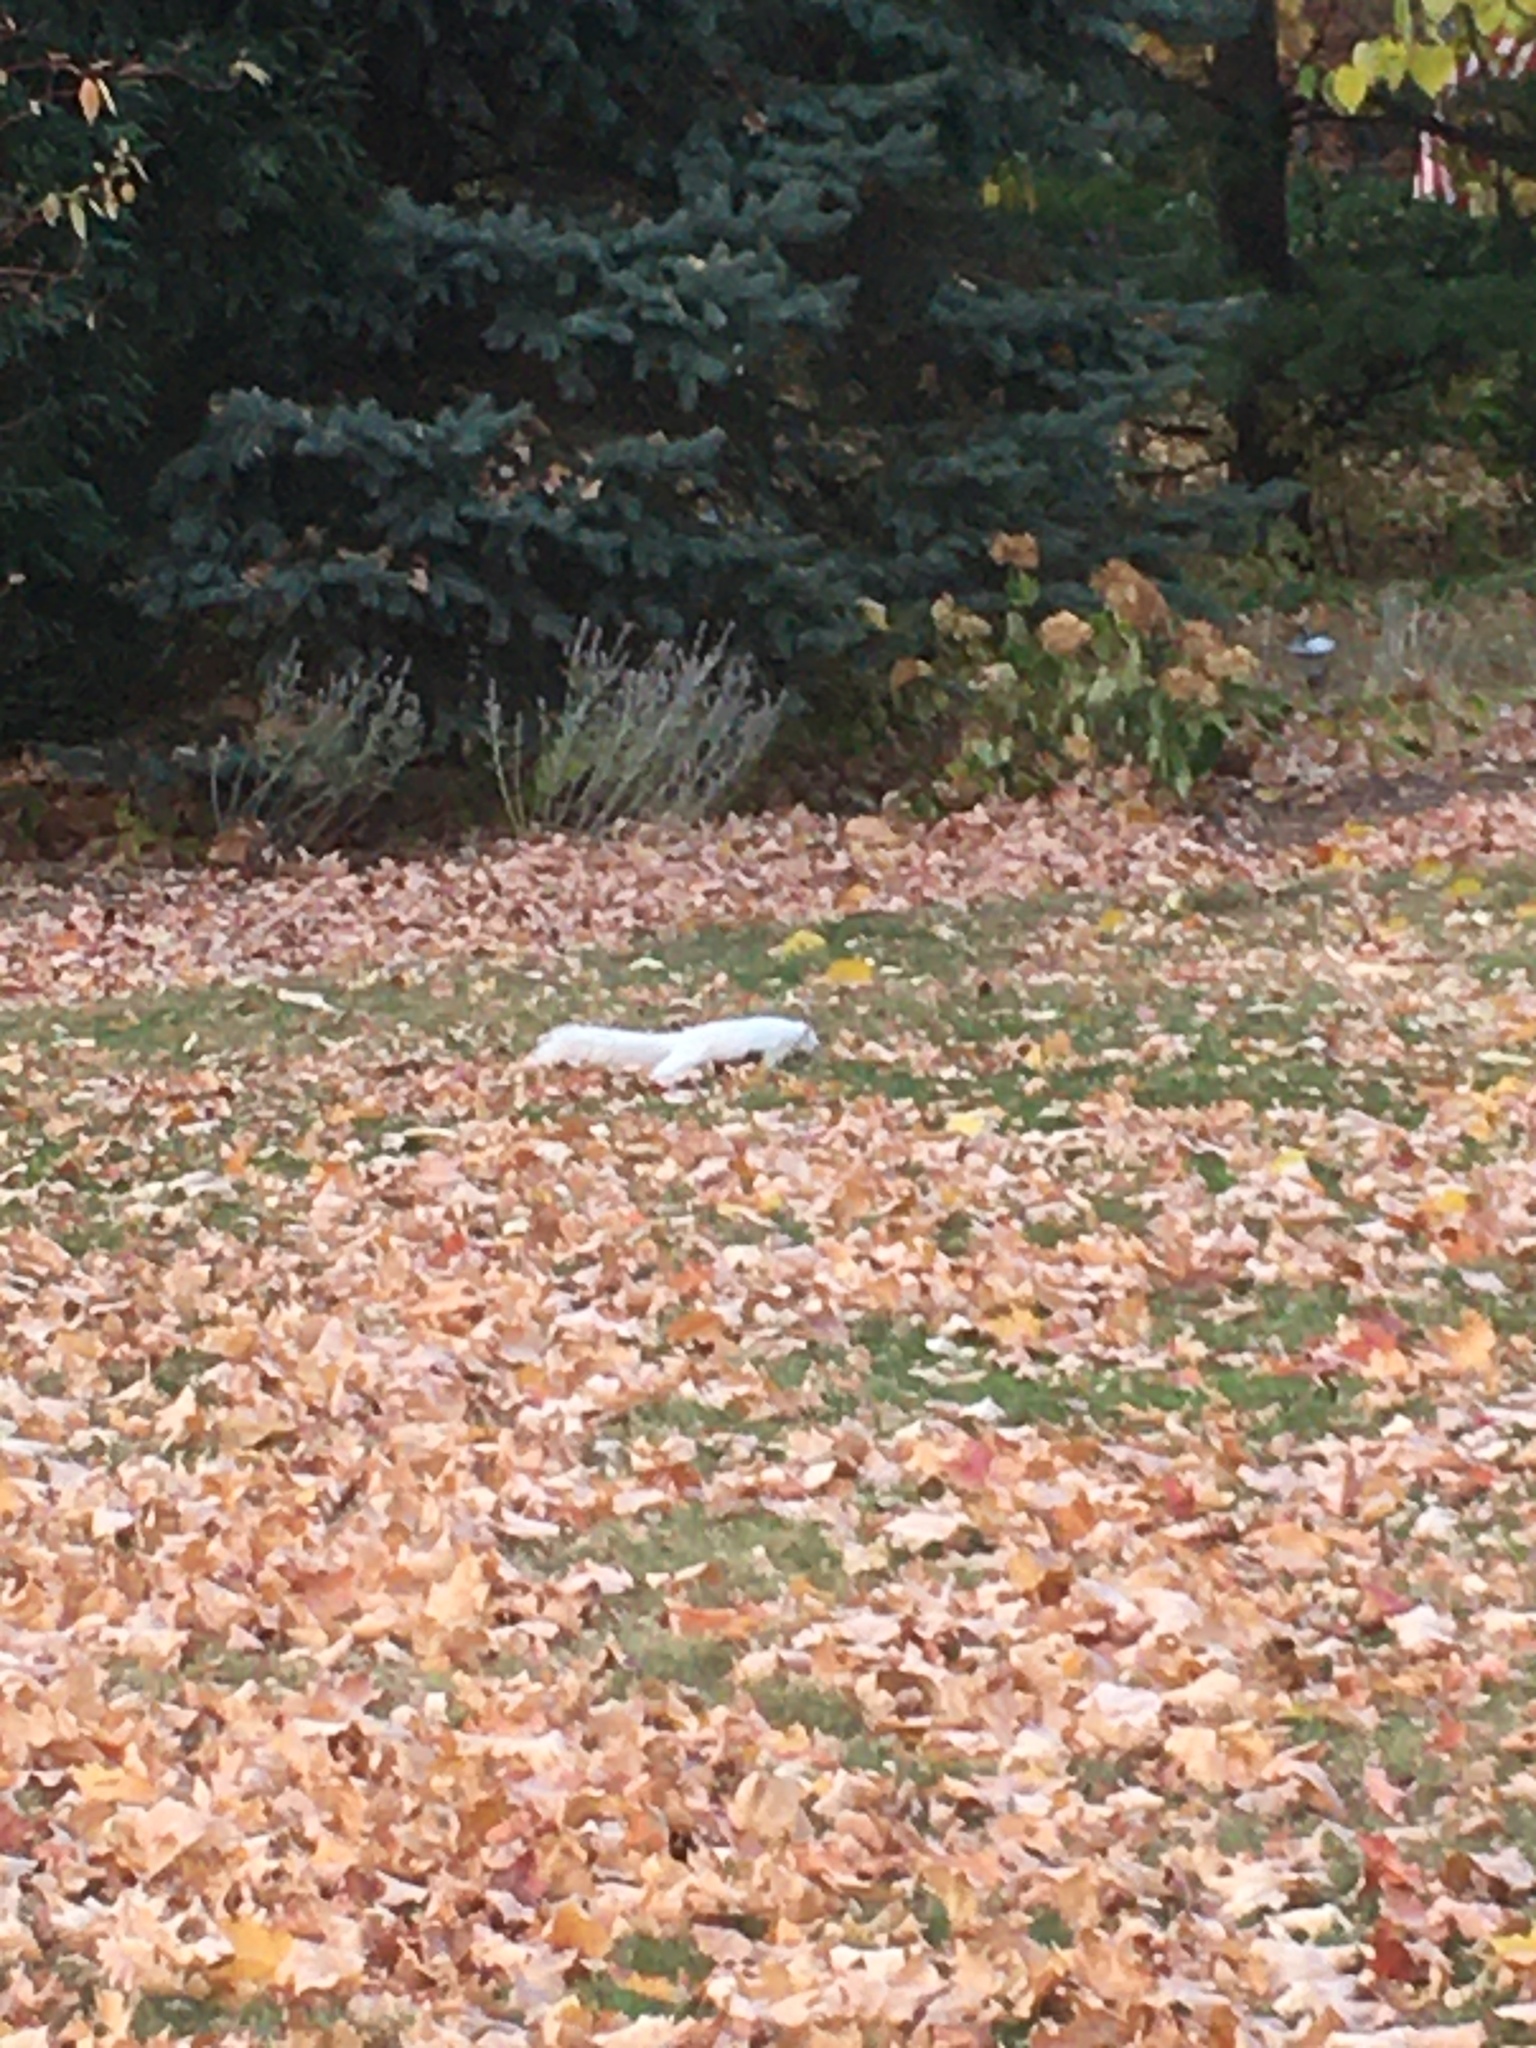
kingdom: Animalia
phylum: Chordata
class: Mammalia
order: Rodentia
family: Sciuridae
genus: Sciurus
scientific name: Sciurus carolinensis
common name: Eastern gray squirrel
